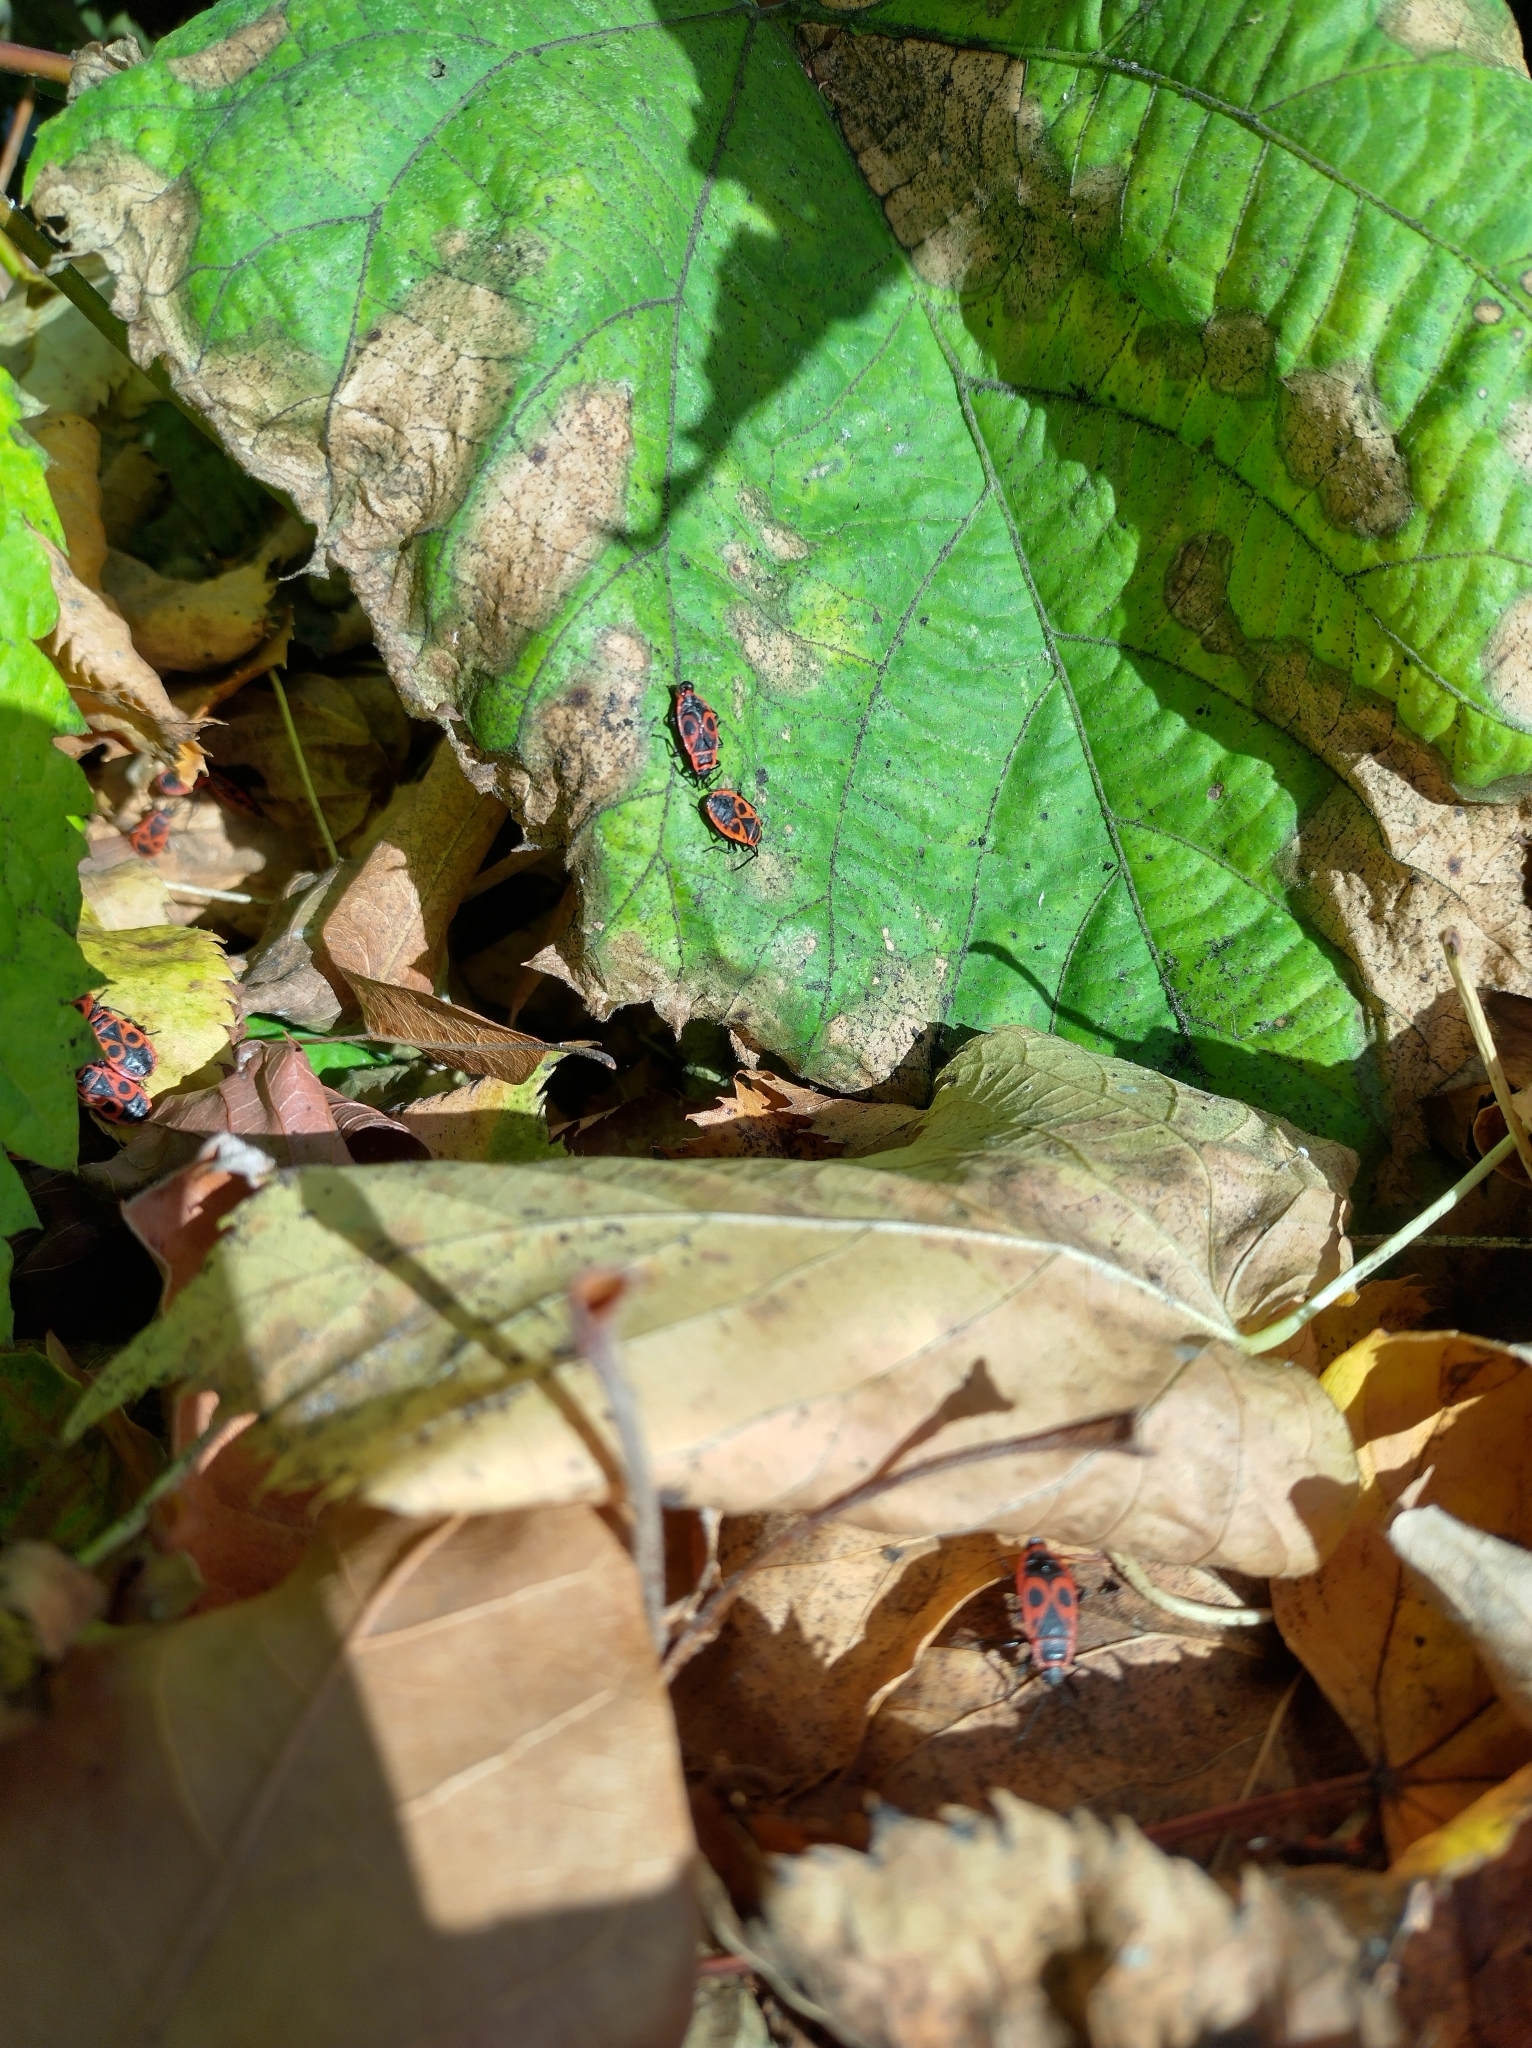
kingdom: Animalia
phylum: Arthropoda
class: Insecta
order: Hemiptera
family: Pyrrhocoridae
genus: Pyrrhocoris
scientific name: Pyrrhocoris apterus
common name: Firebug
